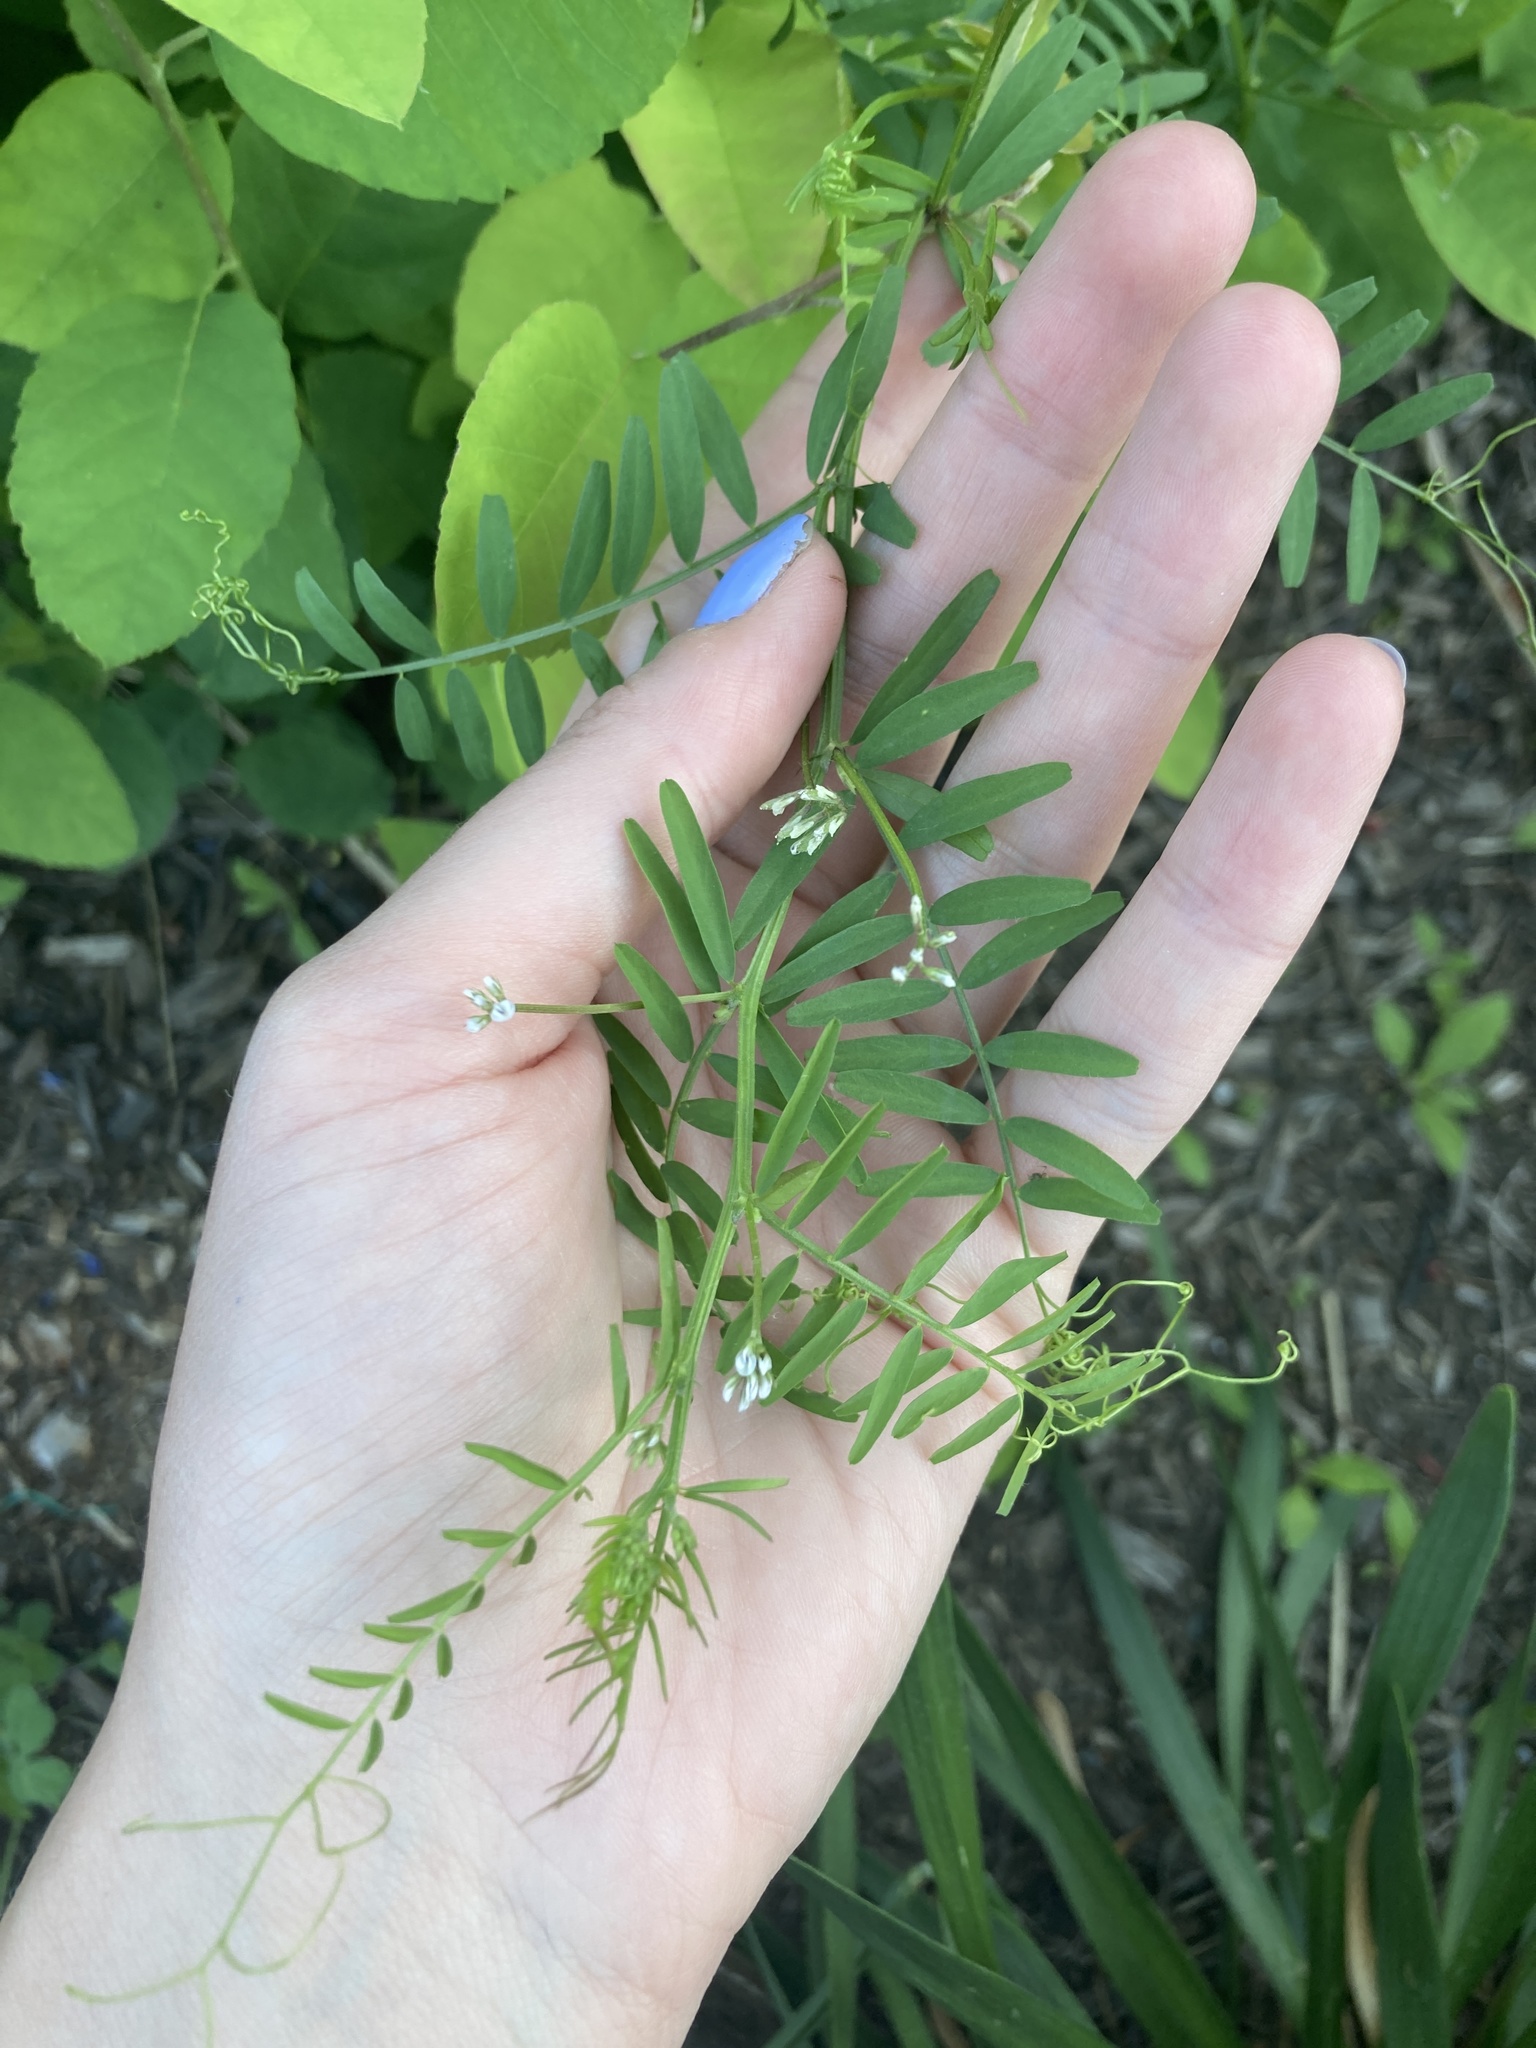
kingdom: Plantae
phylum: Tracheophyta
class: Magnoliopsida
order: Fabales
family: Fabaceae
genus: Vicia
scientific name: Vicia hirsuta
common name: Tiny vetch
